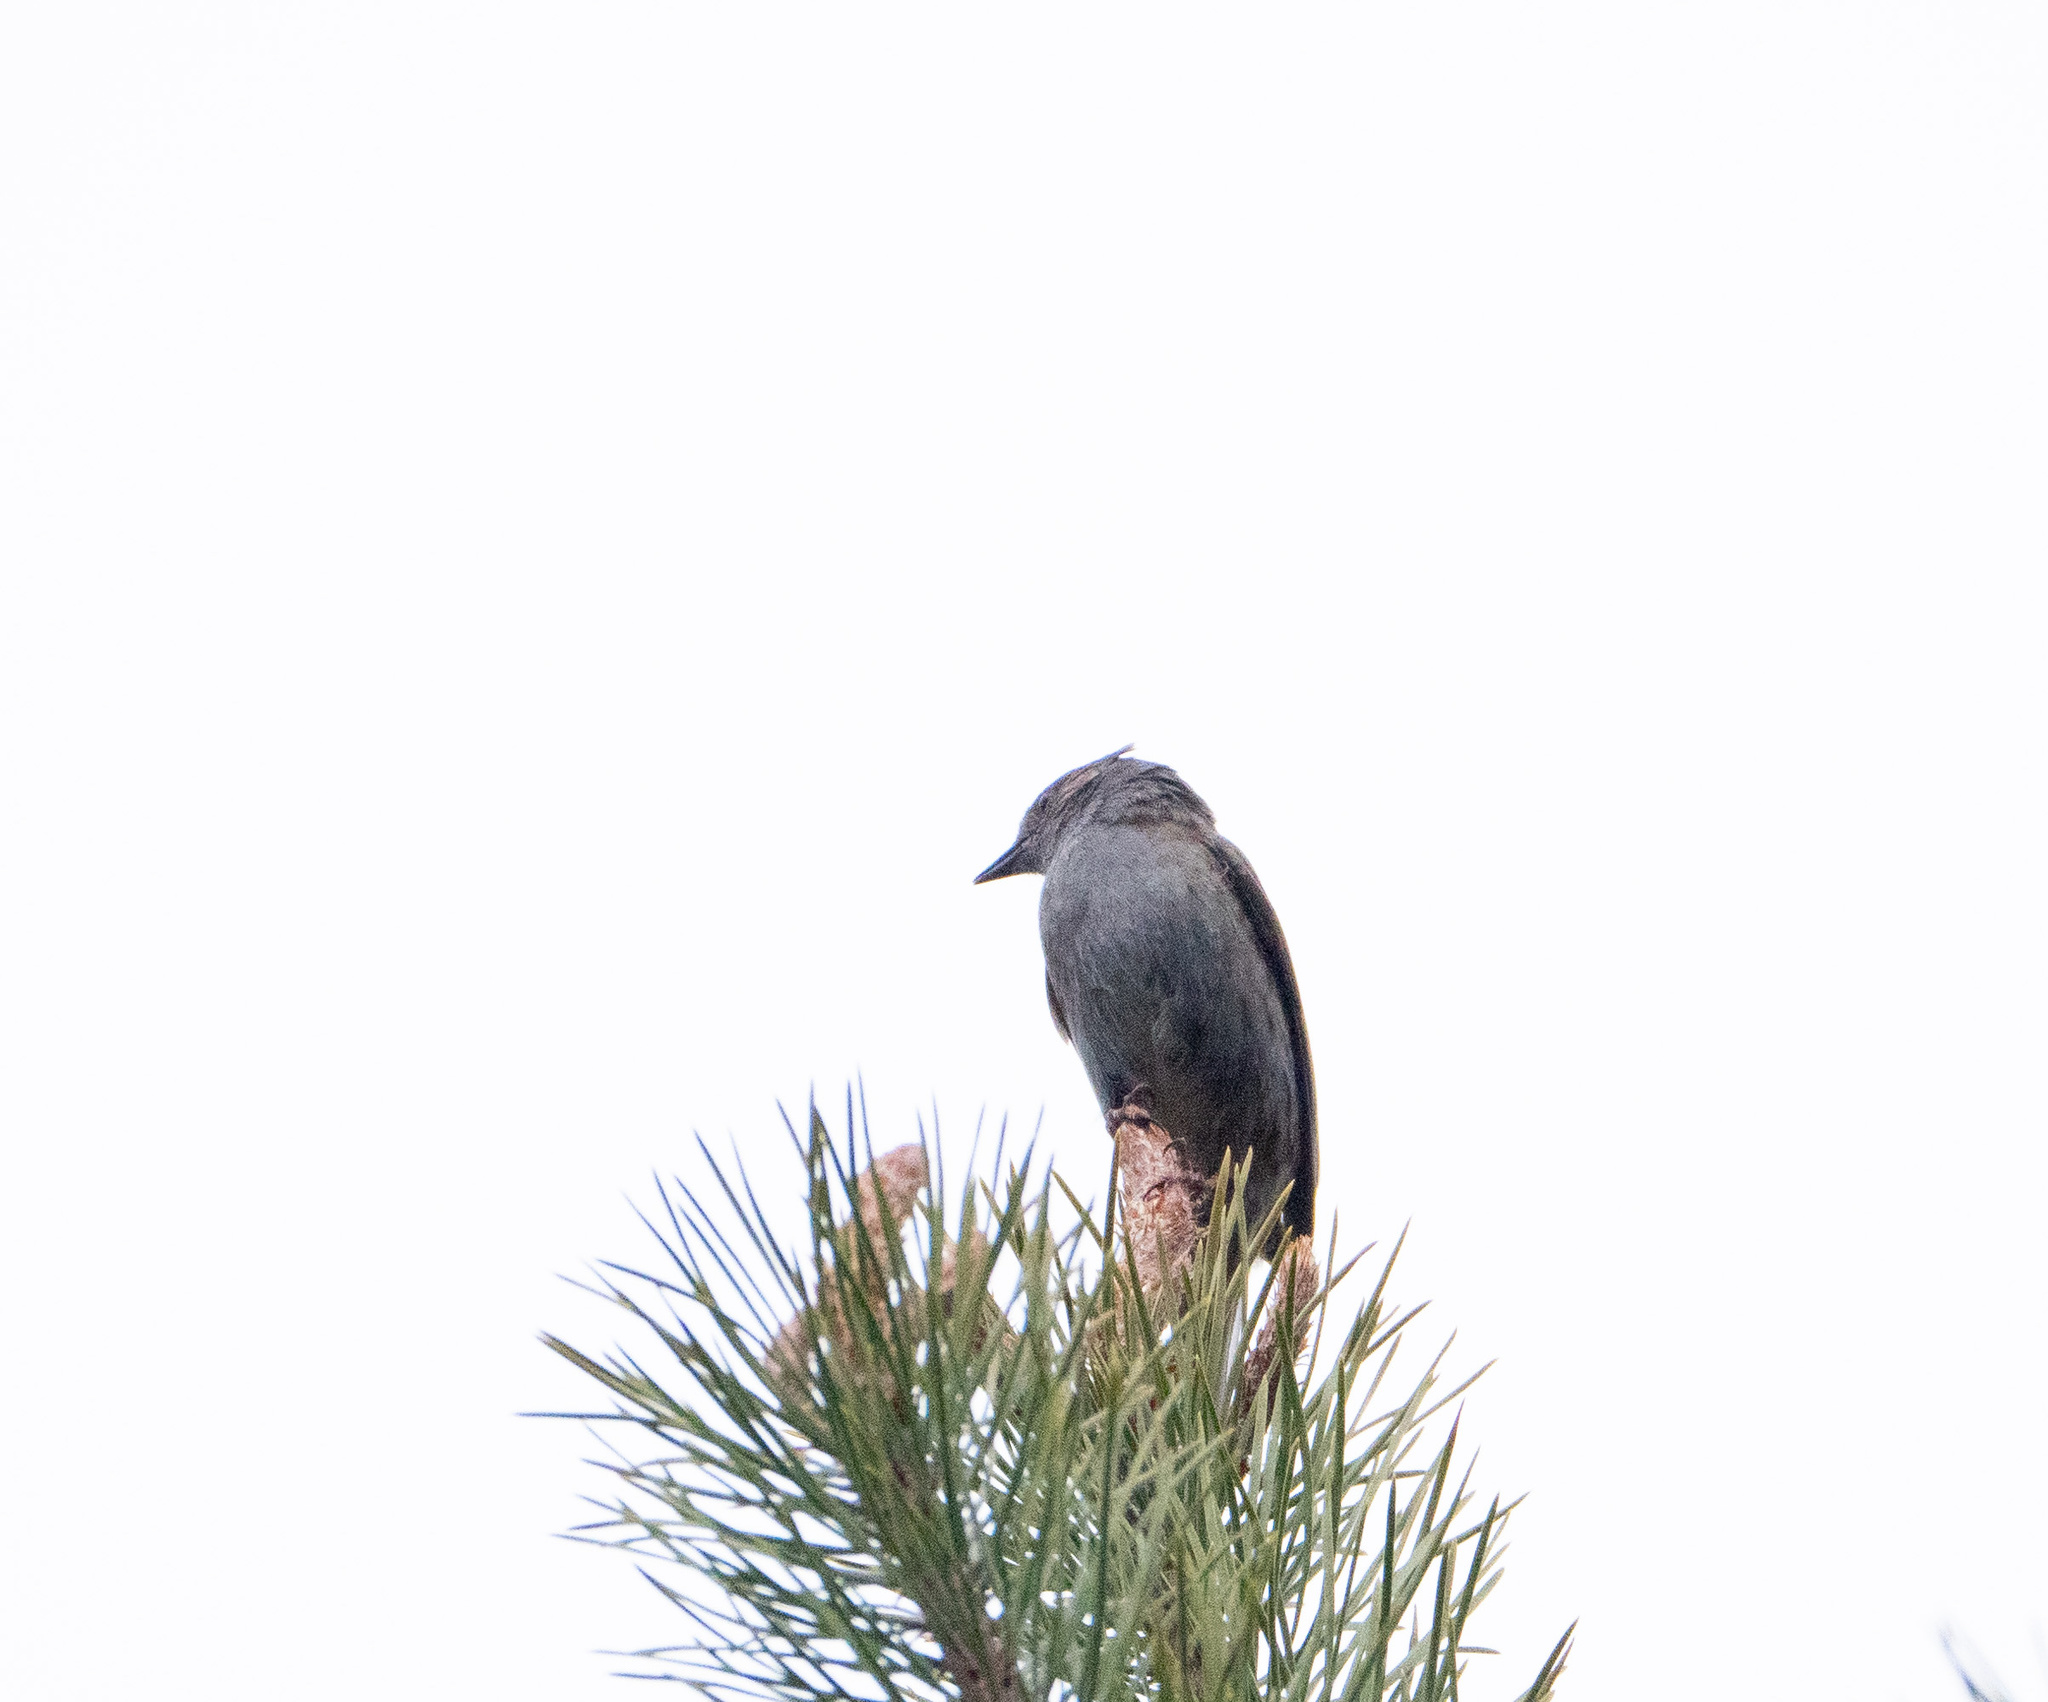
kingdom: Animalia
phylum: Chordata
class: Aves
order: Passeriformes
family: Prunellidae
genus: Prunella
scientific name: Prunella modularis
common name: Dunnock
